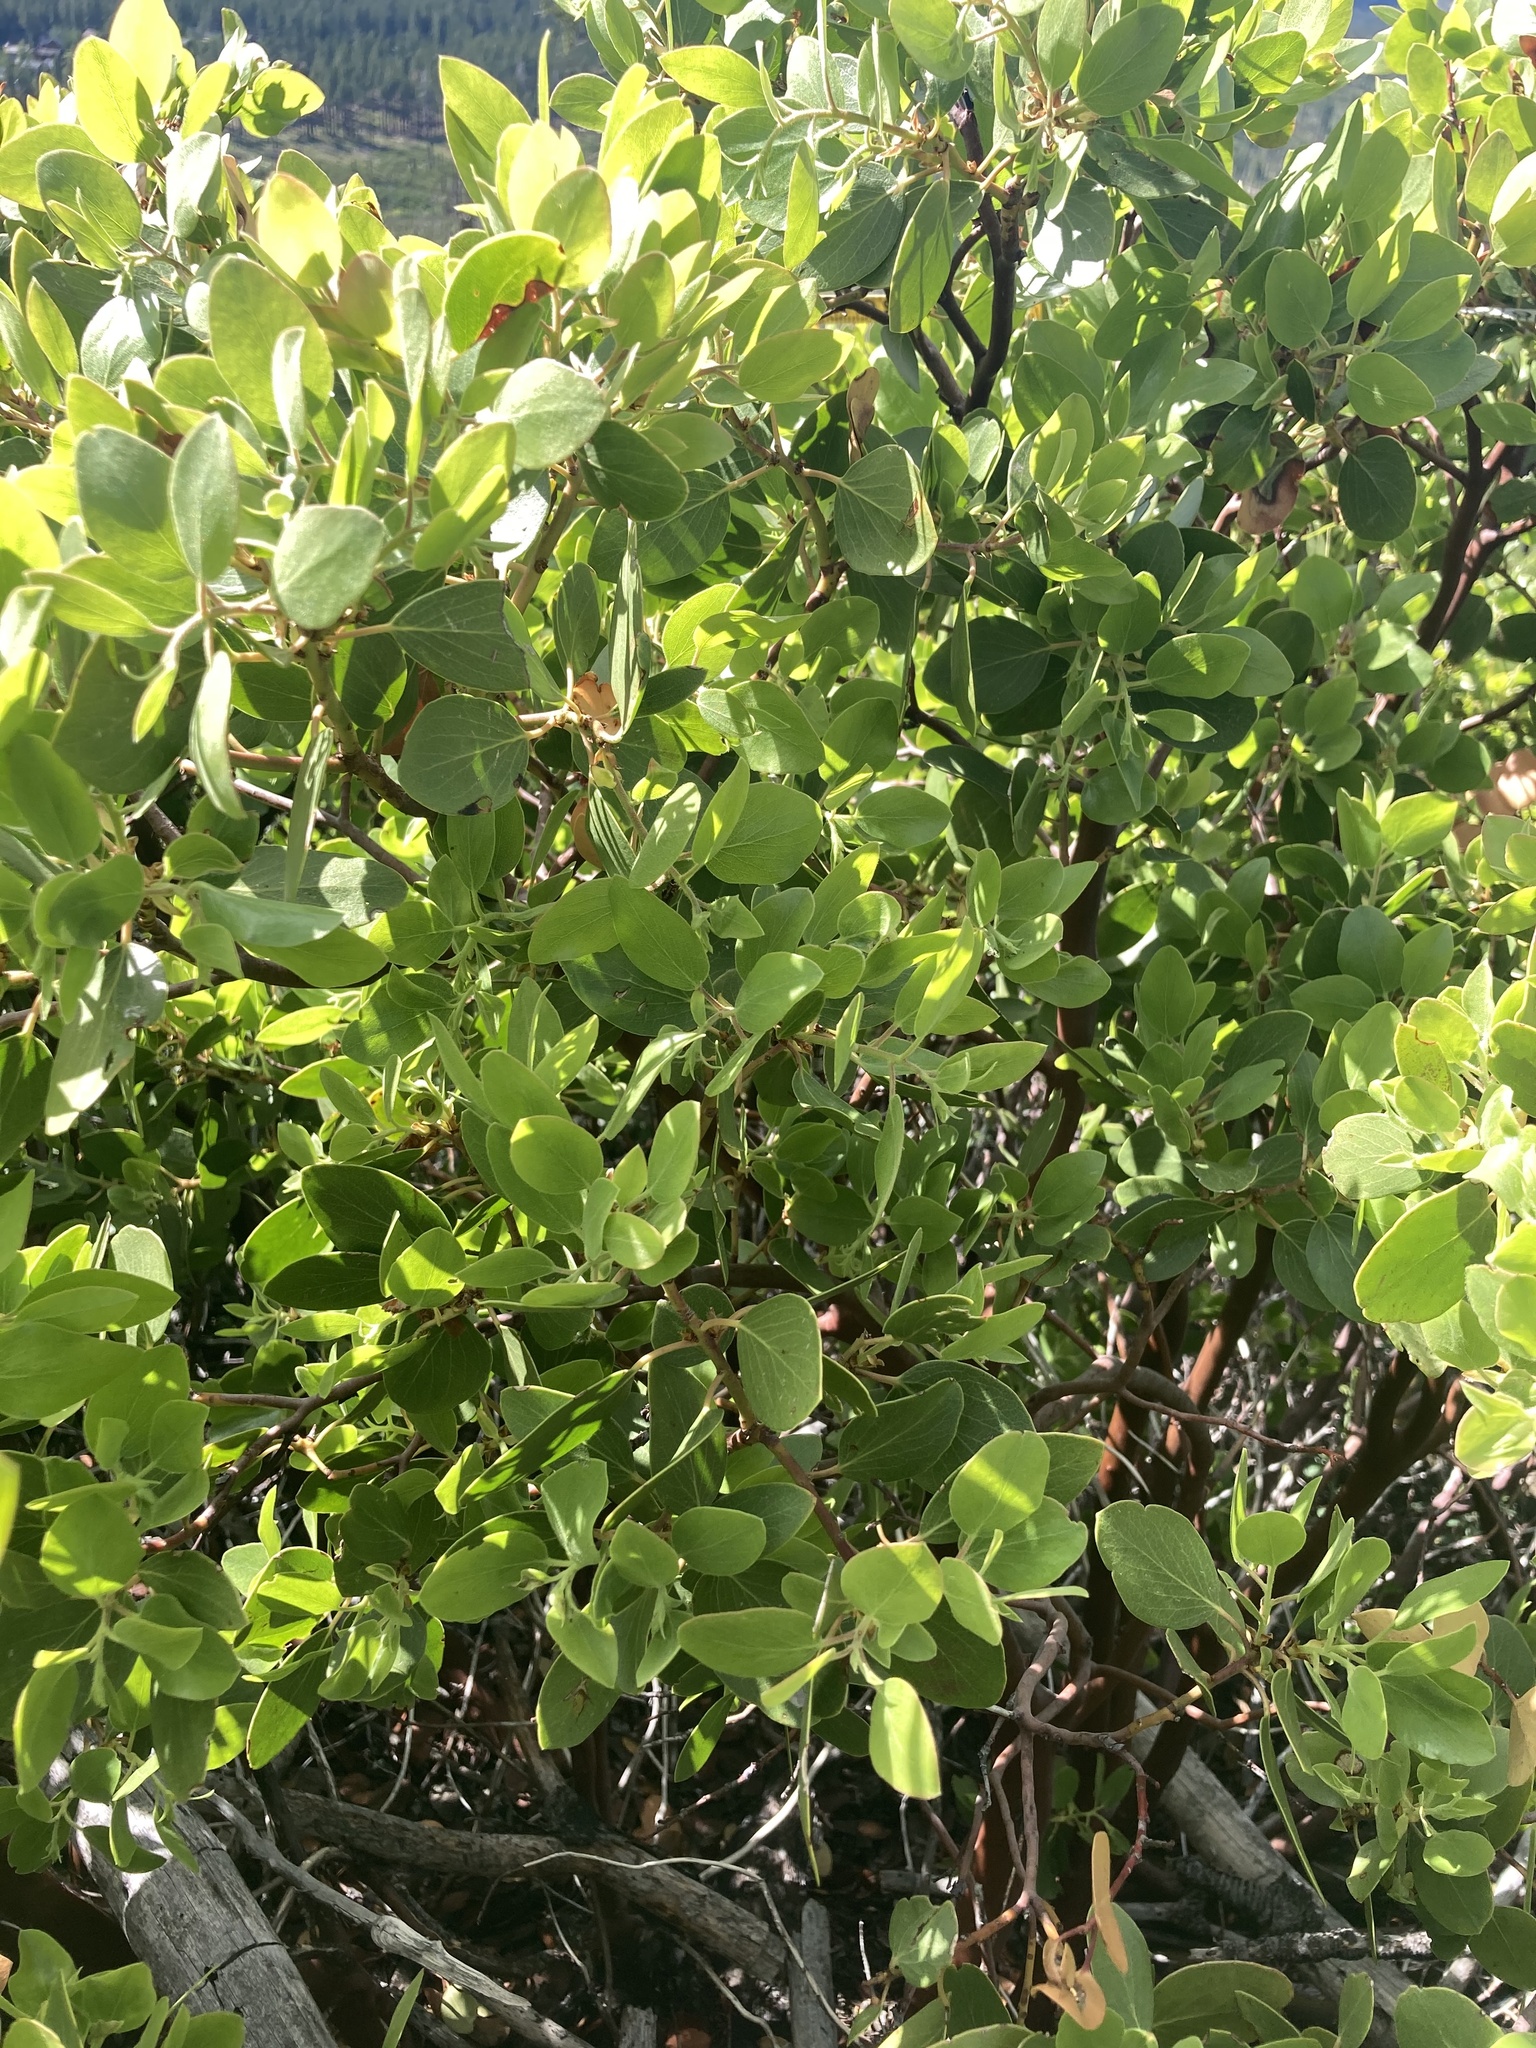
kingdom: Plantae
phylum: Tracheophyta
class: Magnoliopsida
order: Ericales
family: Ericaceae
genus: Arctostaphylos
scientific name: Arctostaphylos patula
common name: Green-leaf manzanita
